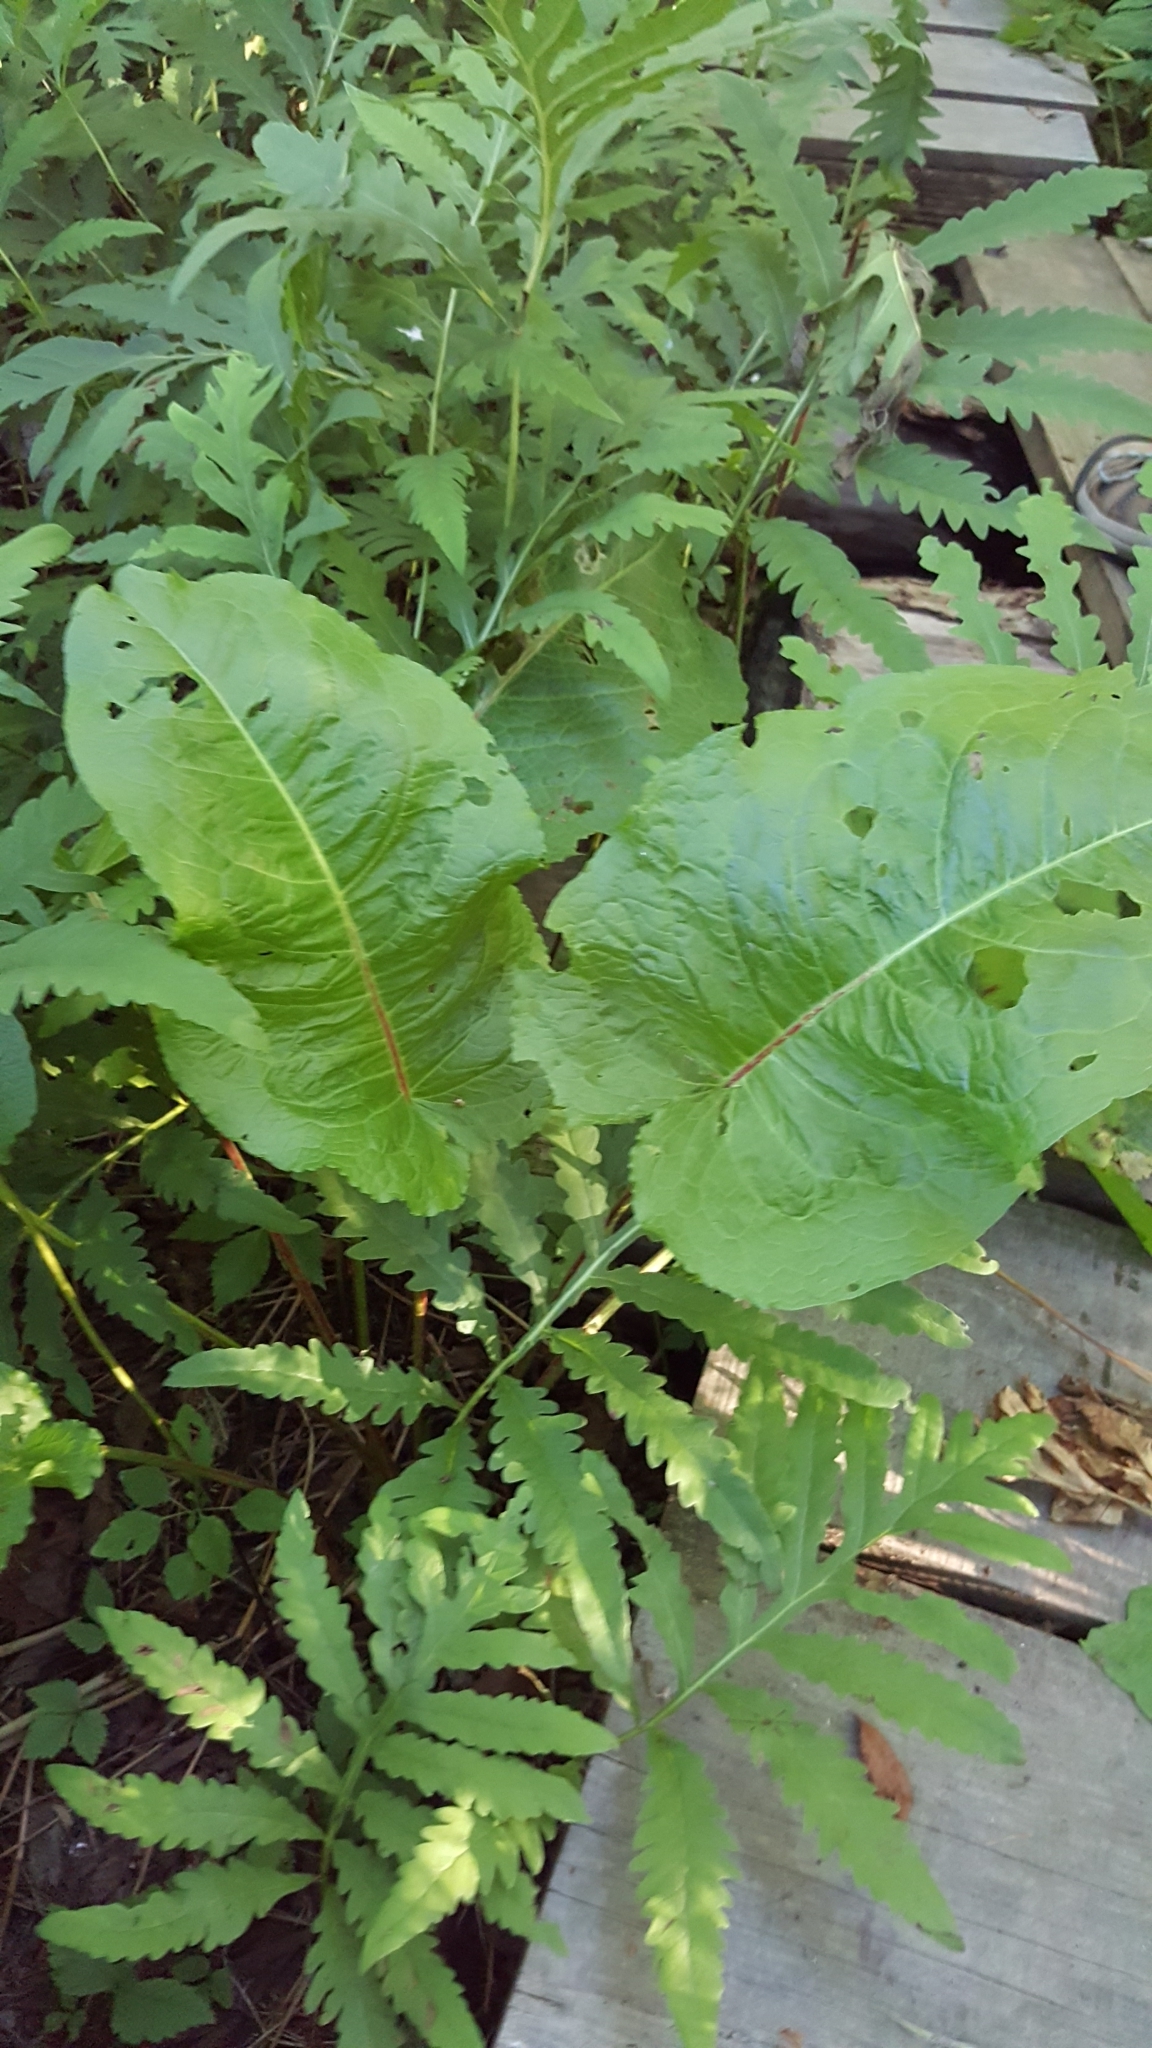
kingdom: Plantae
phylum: Tracheophyta
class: Magnoliopsida
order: Caryophyllales
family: Polygonaceae
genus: Rumex
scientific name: Rumex obtusifolius
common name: Bitter dock
